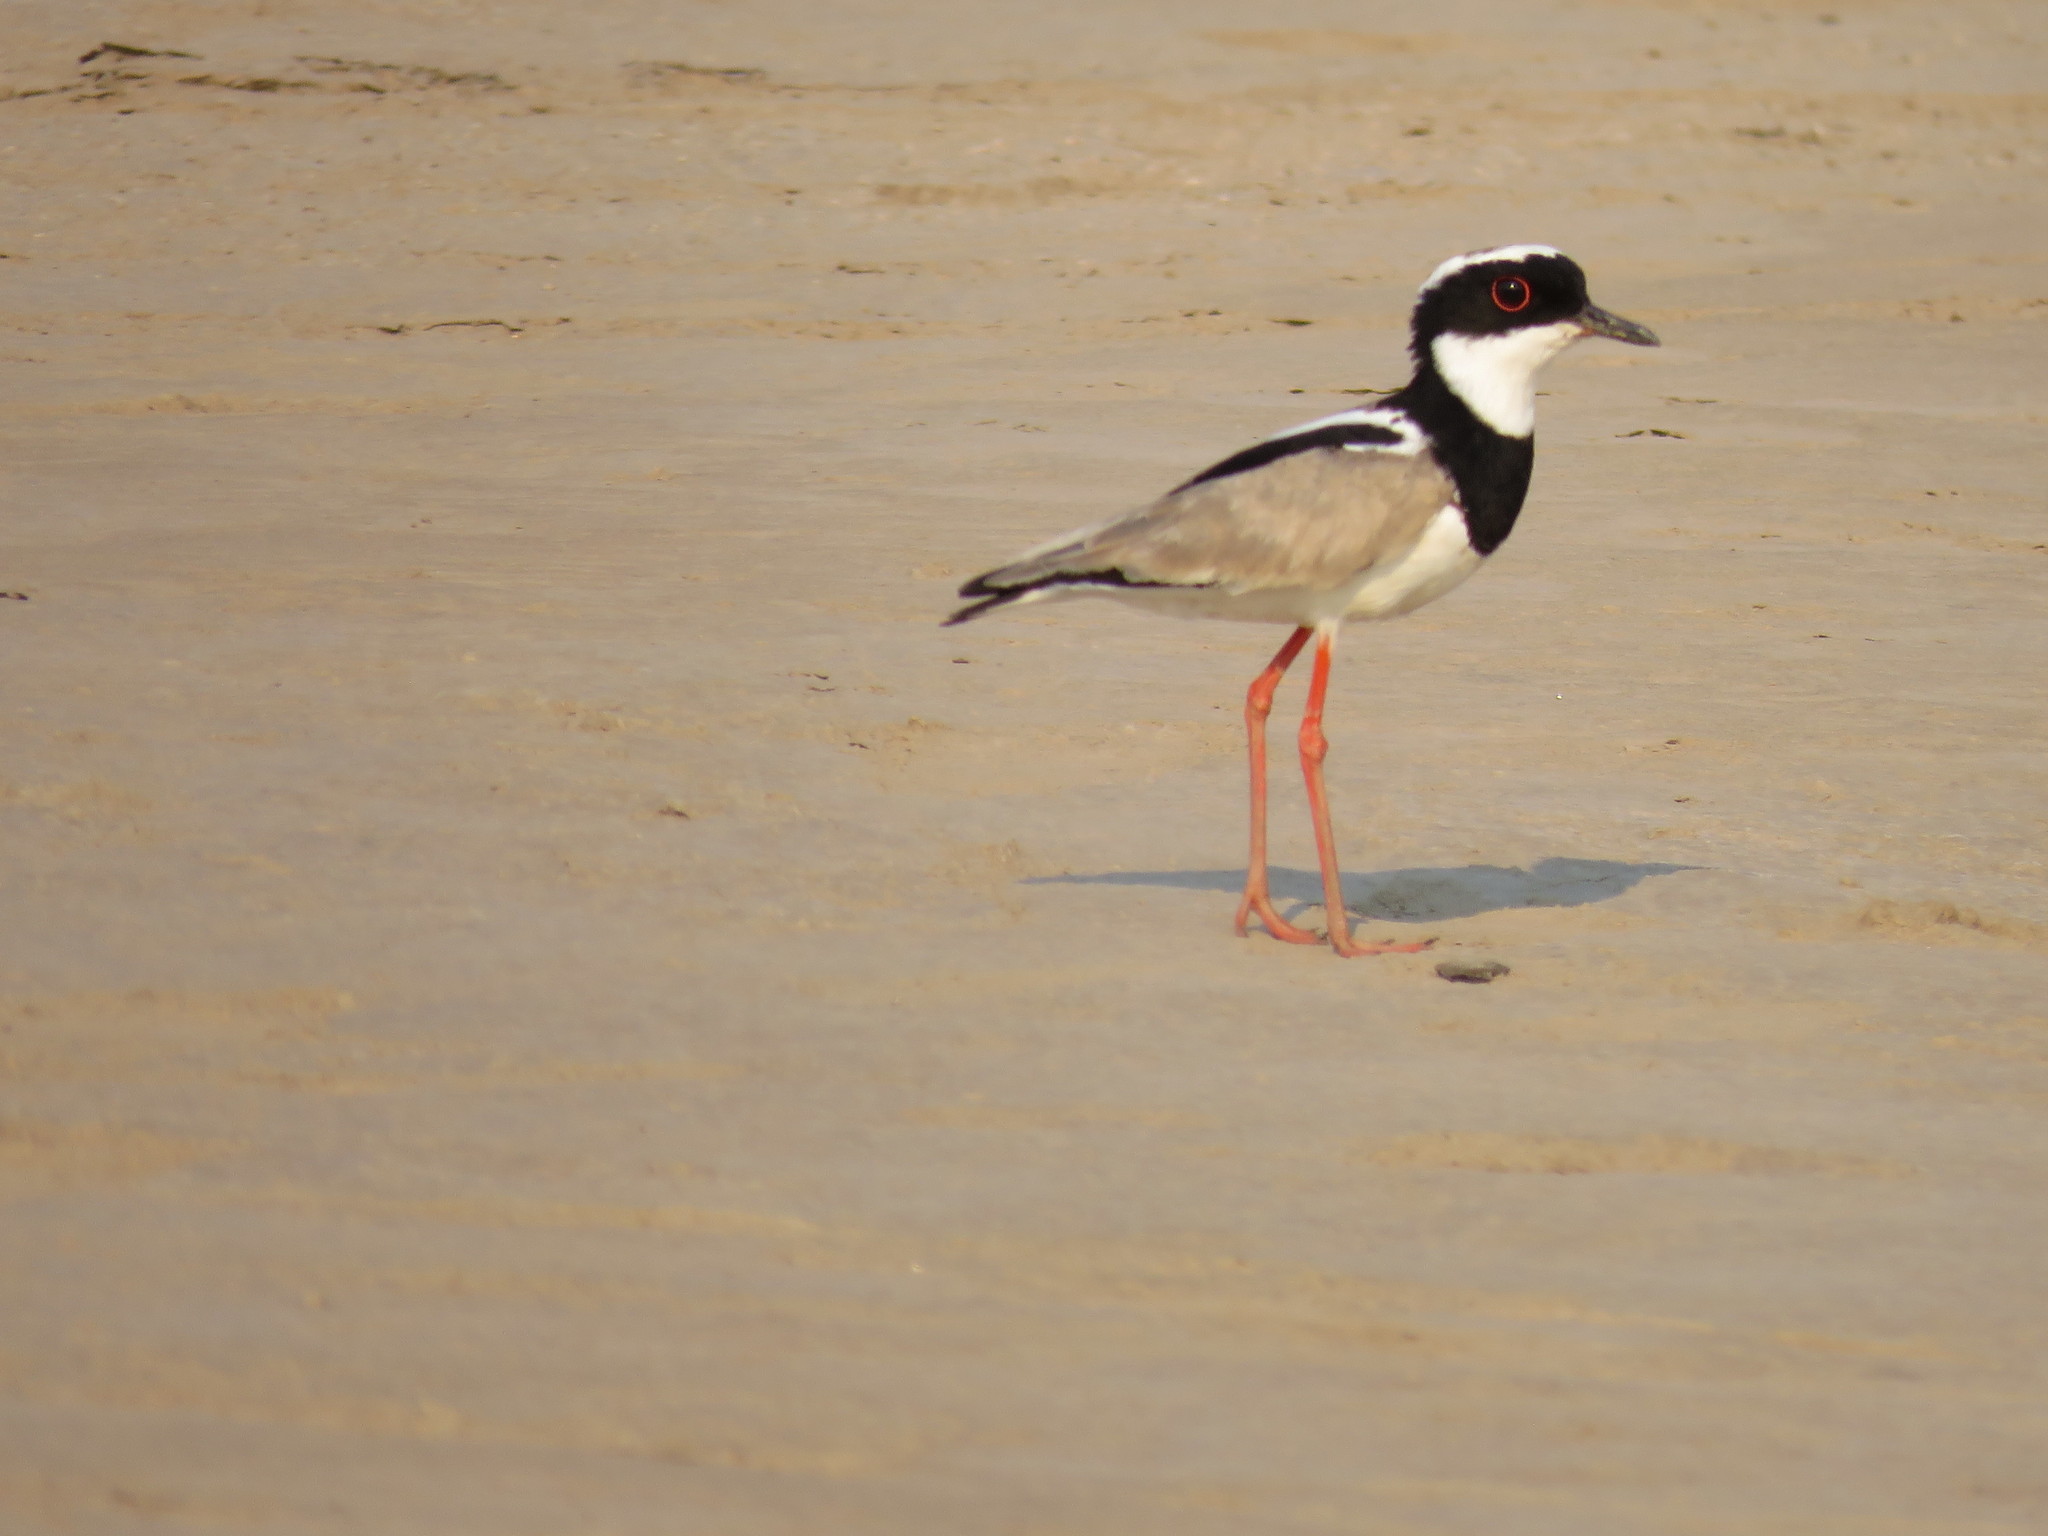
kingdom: Animalia
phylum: Chordata
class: Aves
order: Charadriiformes
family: Charadriidae
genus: Hoploxypterus
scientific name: Hoploxypterus cayanus
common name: Pied plover
